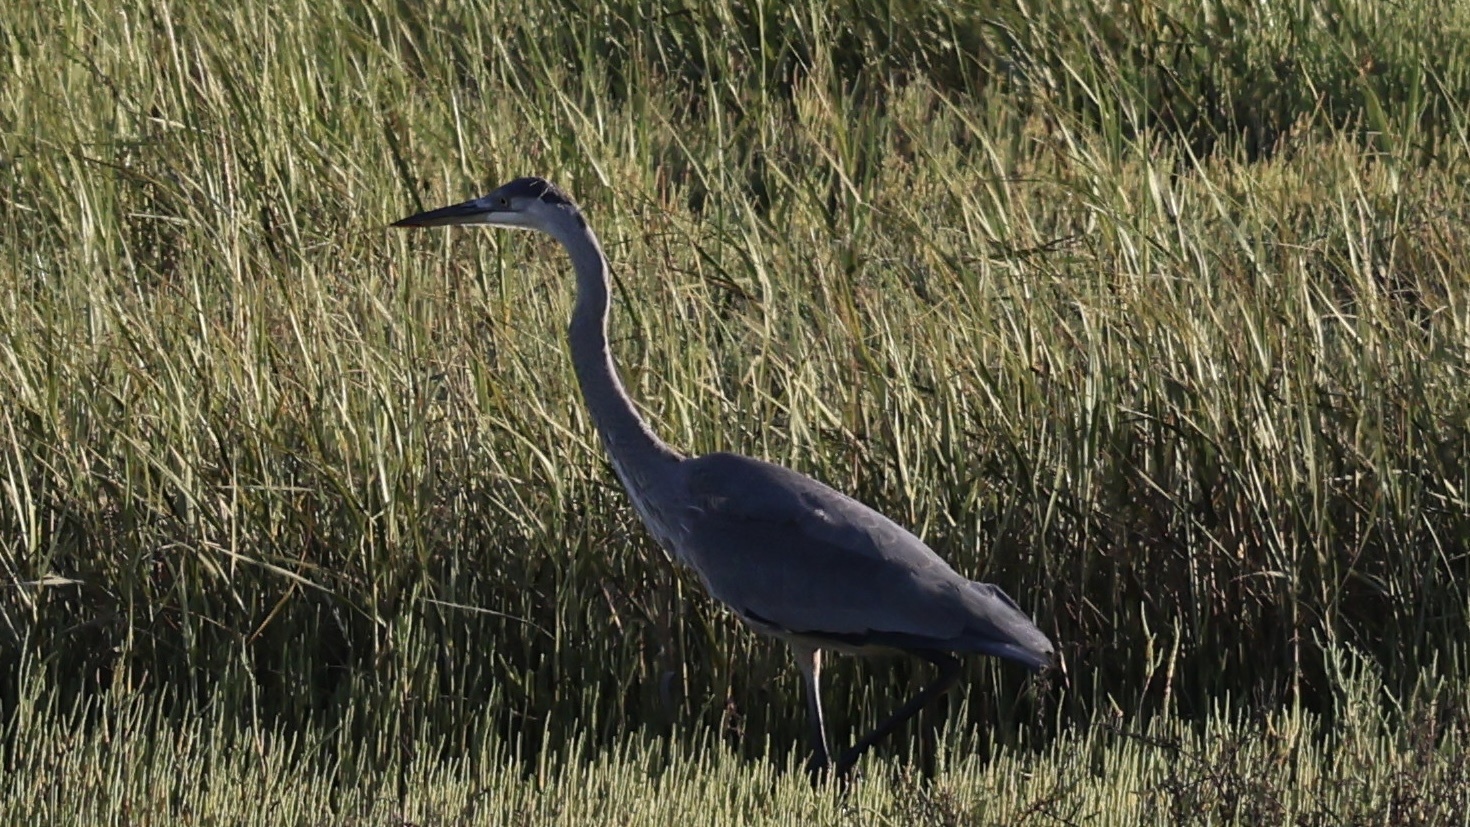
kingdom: Animalia
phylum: Chordata
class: Aves
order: Pelecaniformes
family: Ardeidae
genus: Ardea
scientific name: Ardea herodias
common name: Great blue heron
